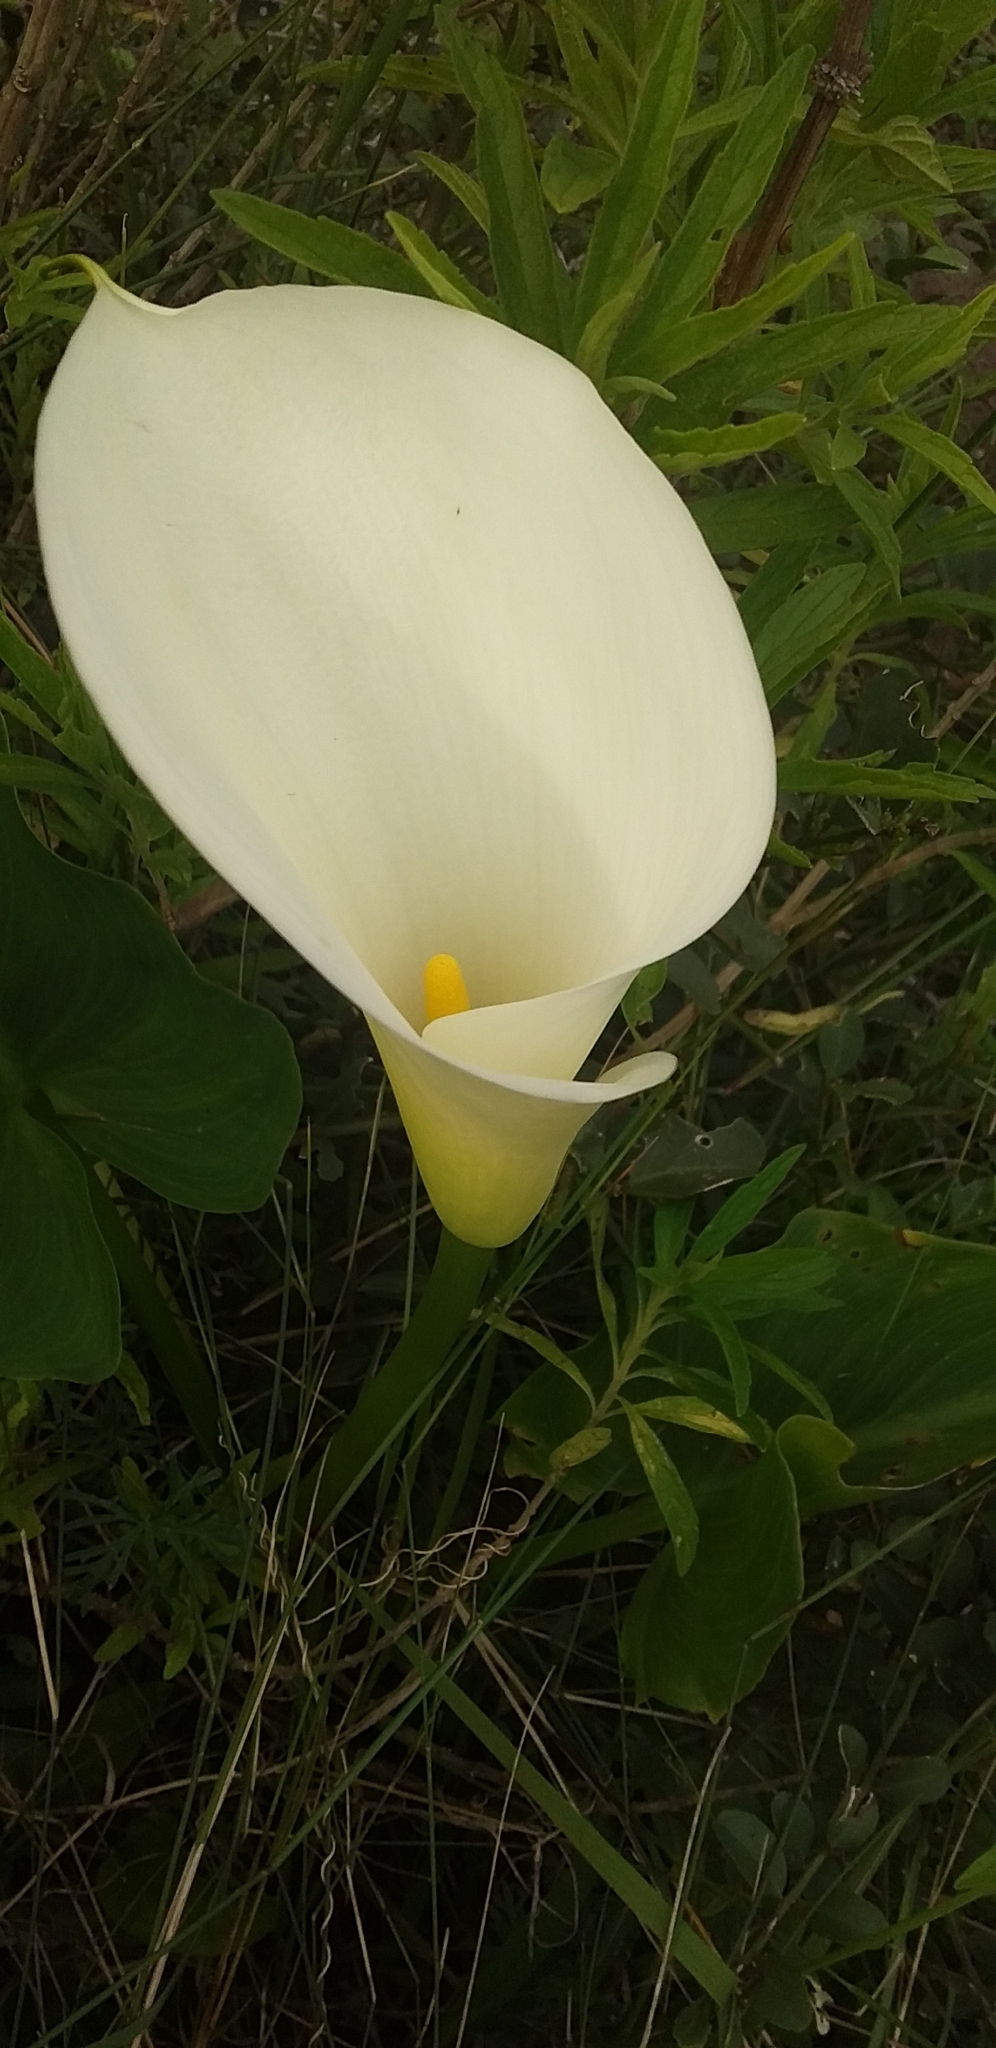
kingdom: Plantae
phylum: Tracheophyta
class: Liliopsida
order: Alismatales
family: Araceae
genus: Zantedeschia
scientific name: Zantedeschia aethiopica
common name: Altar-lily
